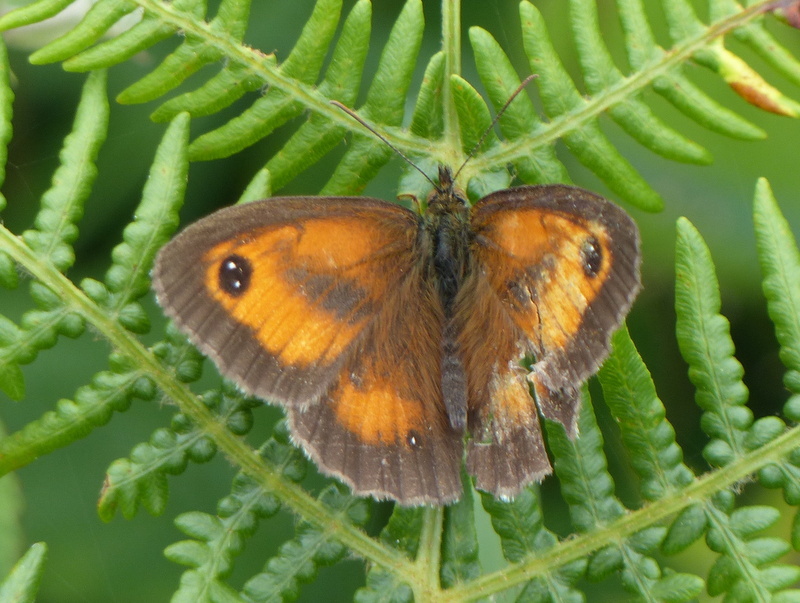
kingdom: Animalia
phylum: Arthropoda
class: Insecta
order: Lepidoptera
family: Nymphalidae
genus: Pyronia
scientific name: Pyronia tithonus
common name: Gatekeeper
